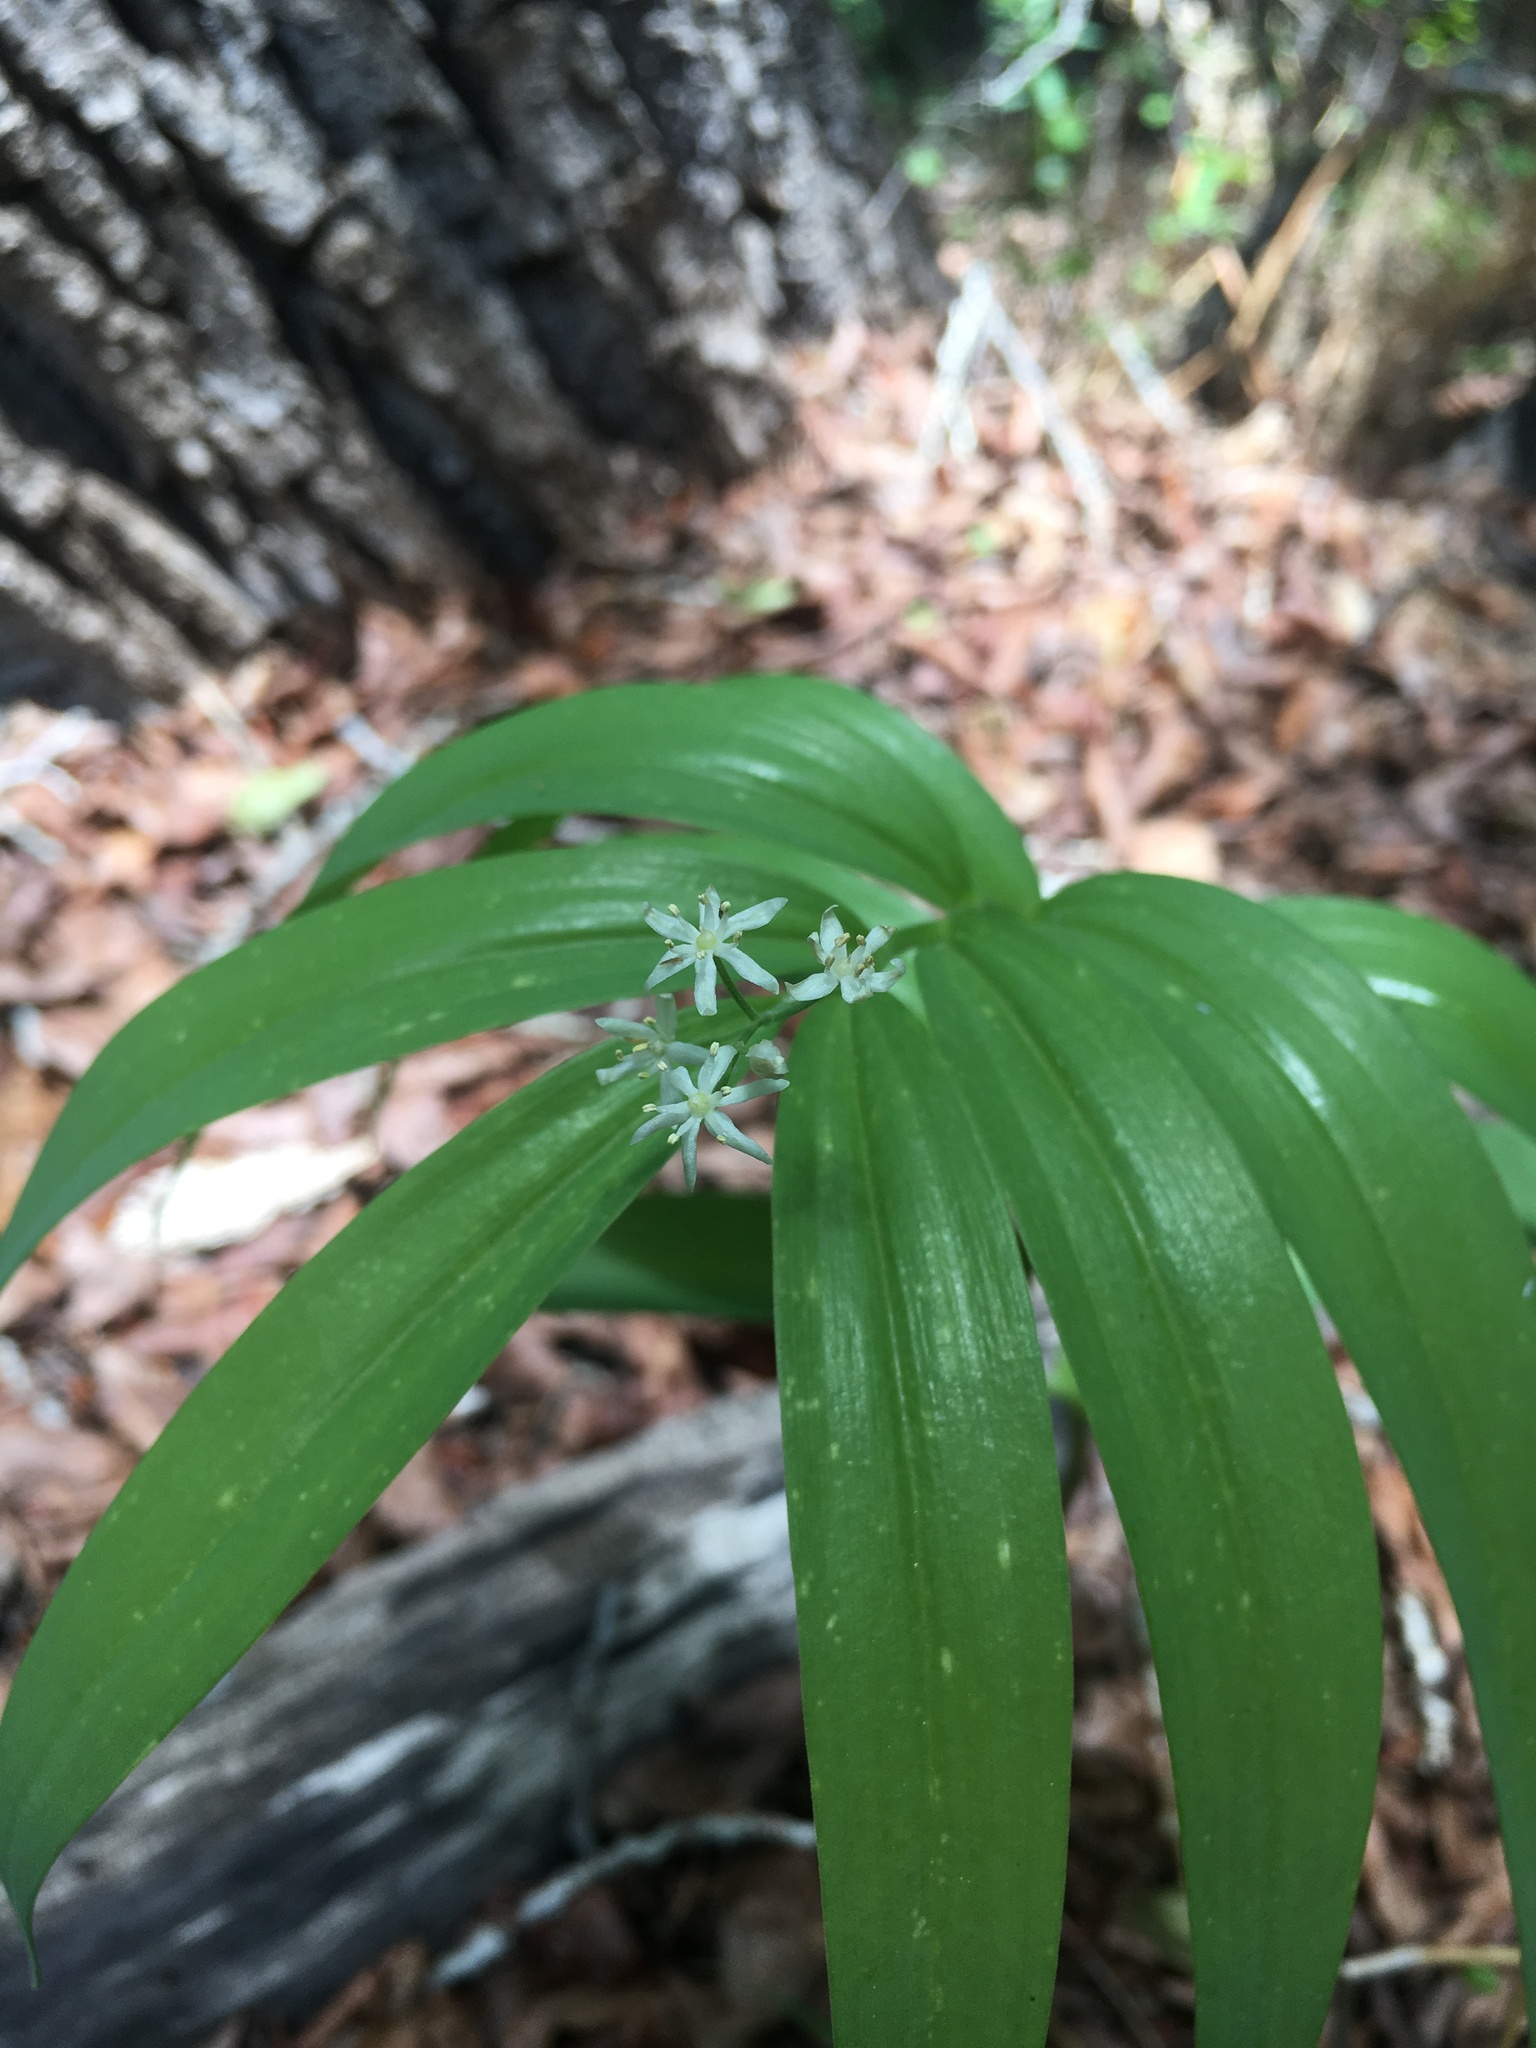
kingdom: Plantae
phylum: Tracheophyta
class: Liliopsida
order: Asparagales
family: Asparagaceae
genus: Maianthemum
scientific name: Maianthemum stellatum
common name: Little false solomon's seal
